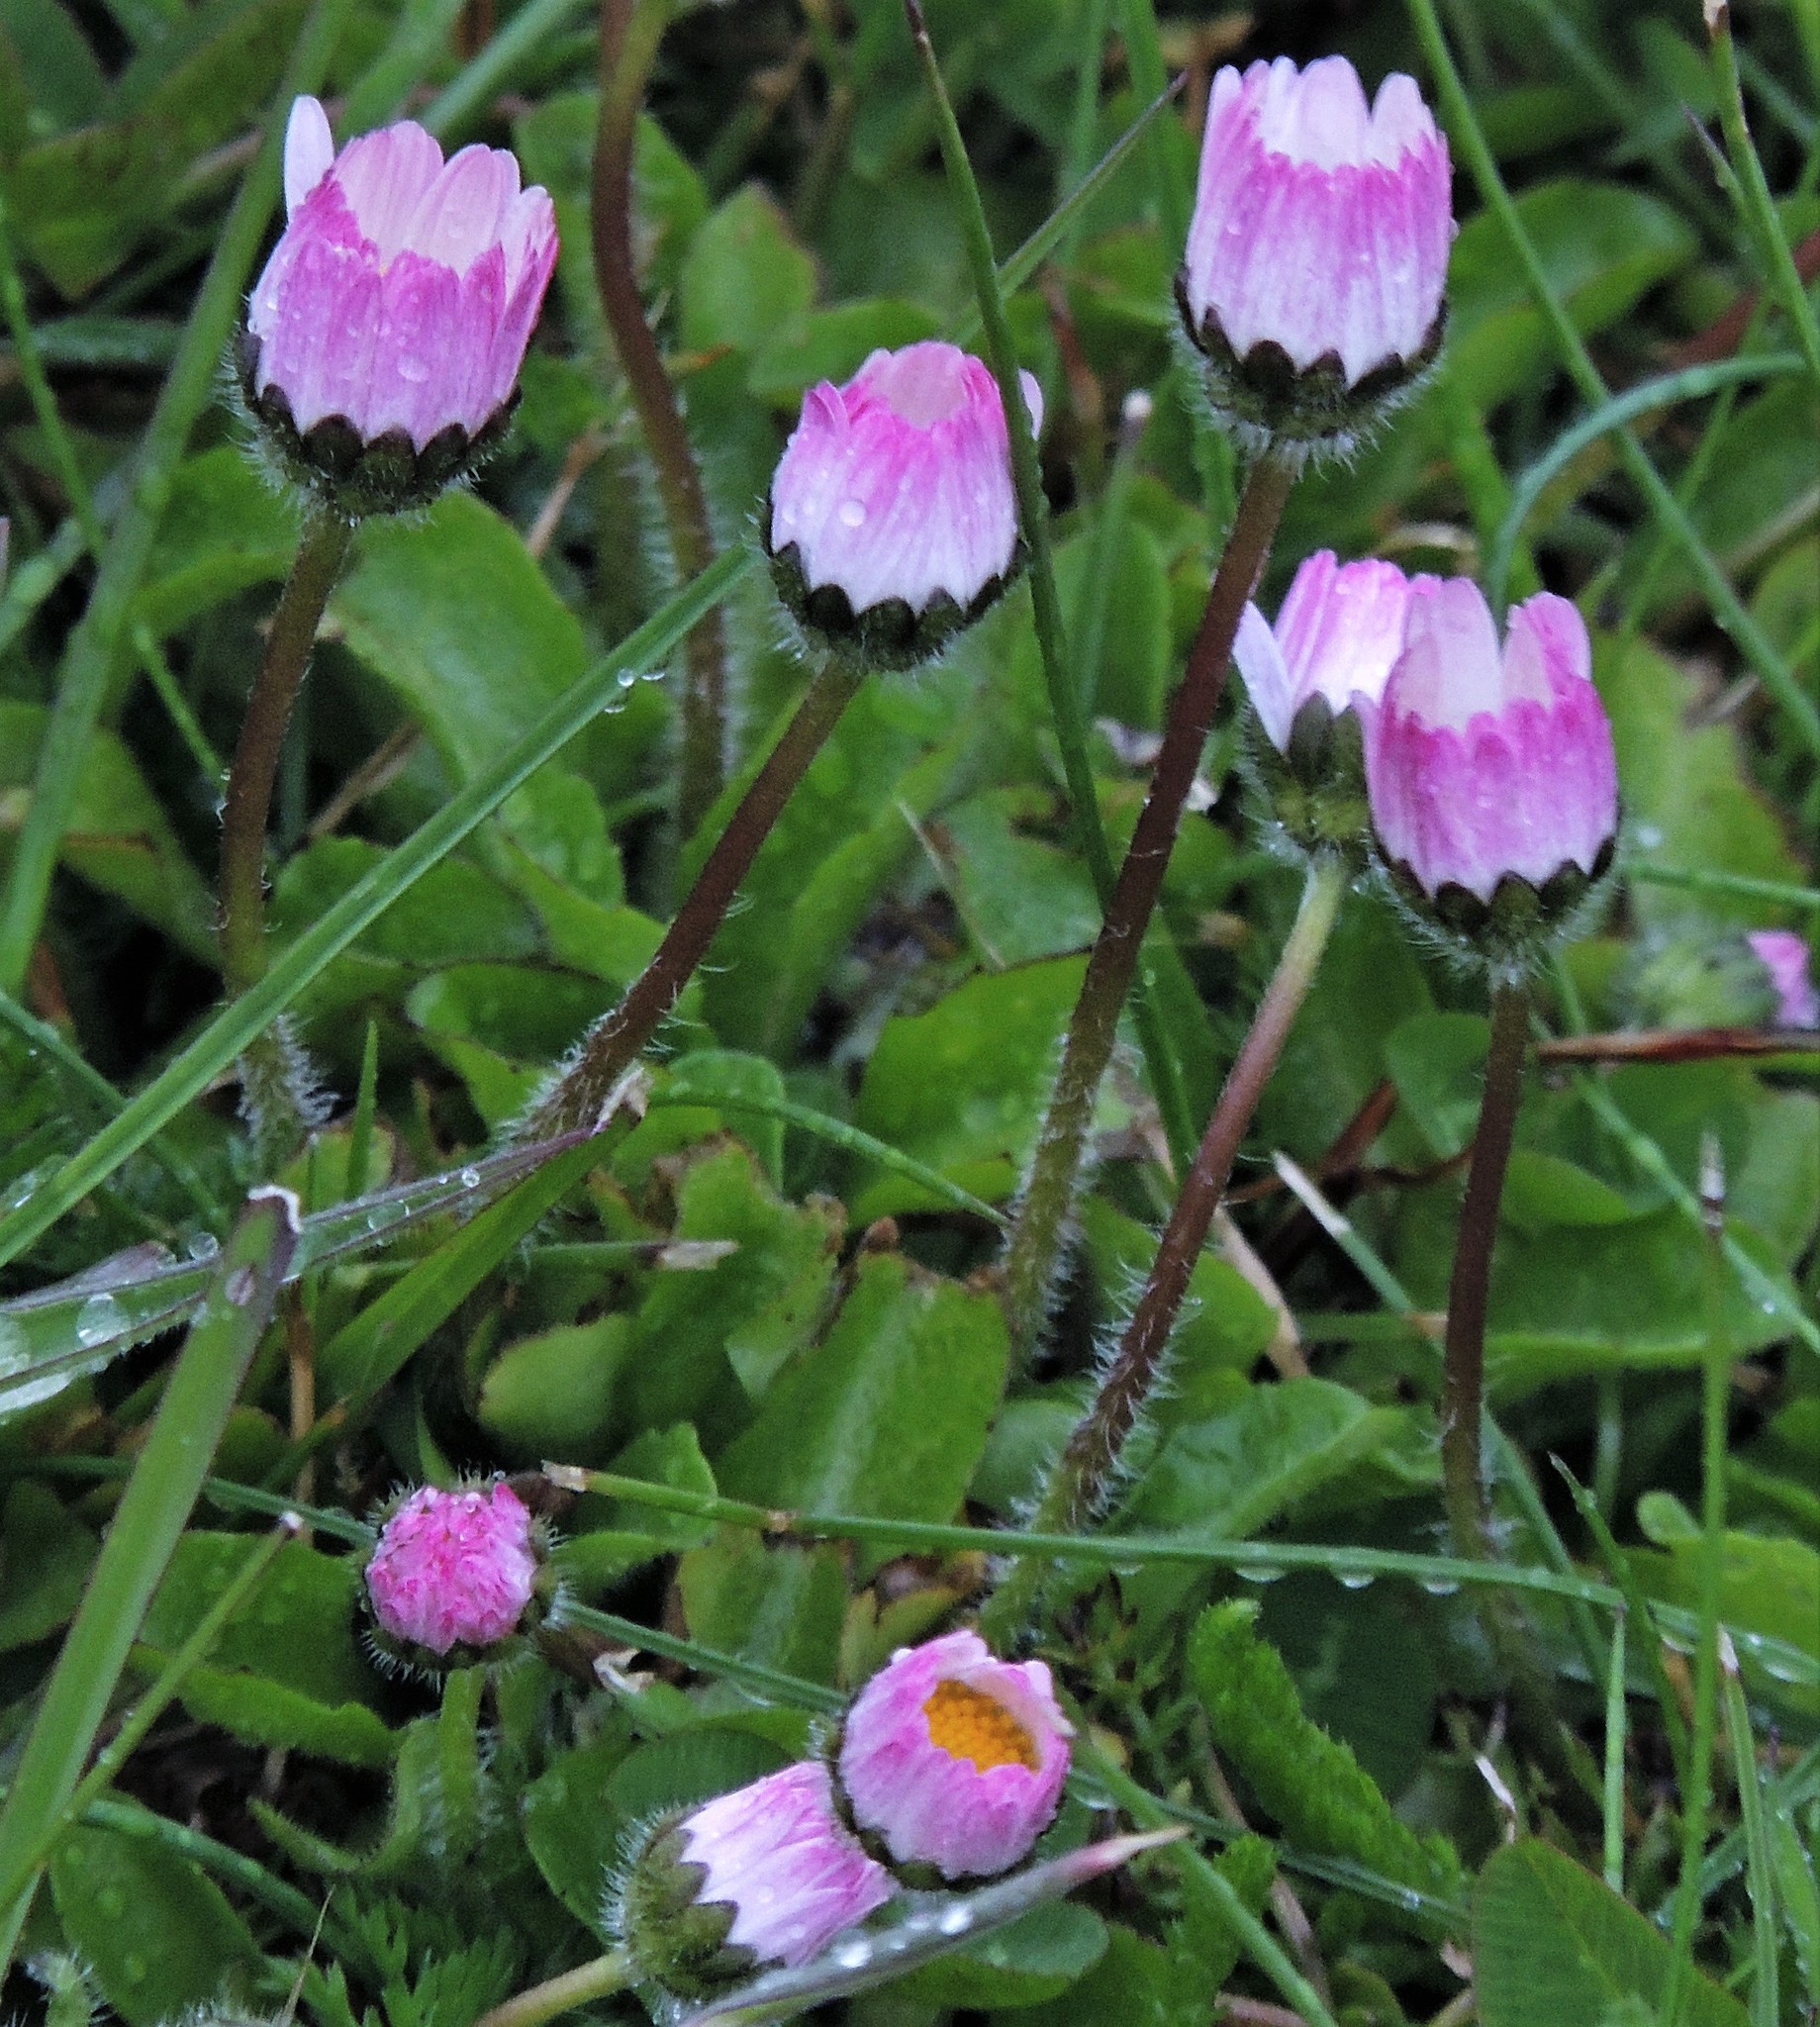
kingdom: Plantae
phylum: Tracheophyta
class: Magnoliopsida
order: Asterales
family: Asteraceae
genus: Bellis
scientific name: Bellis perennis
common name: Lawndaisy
